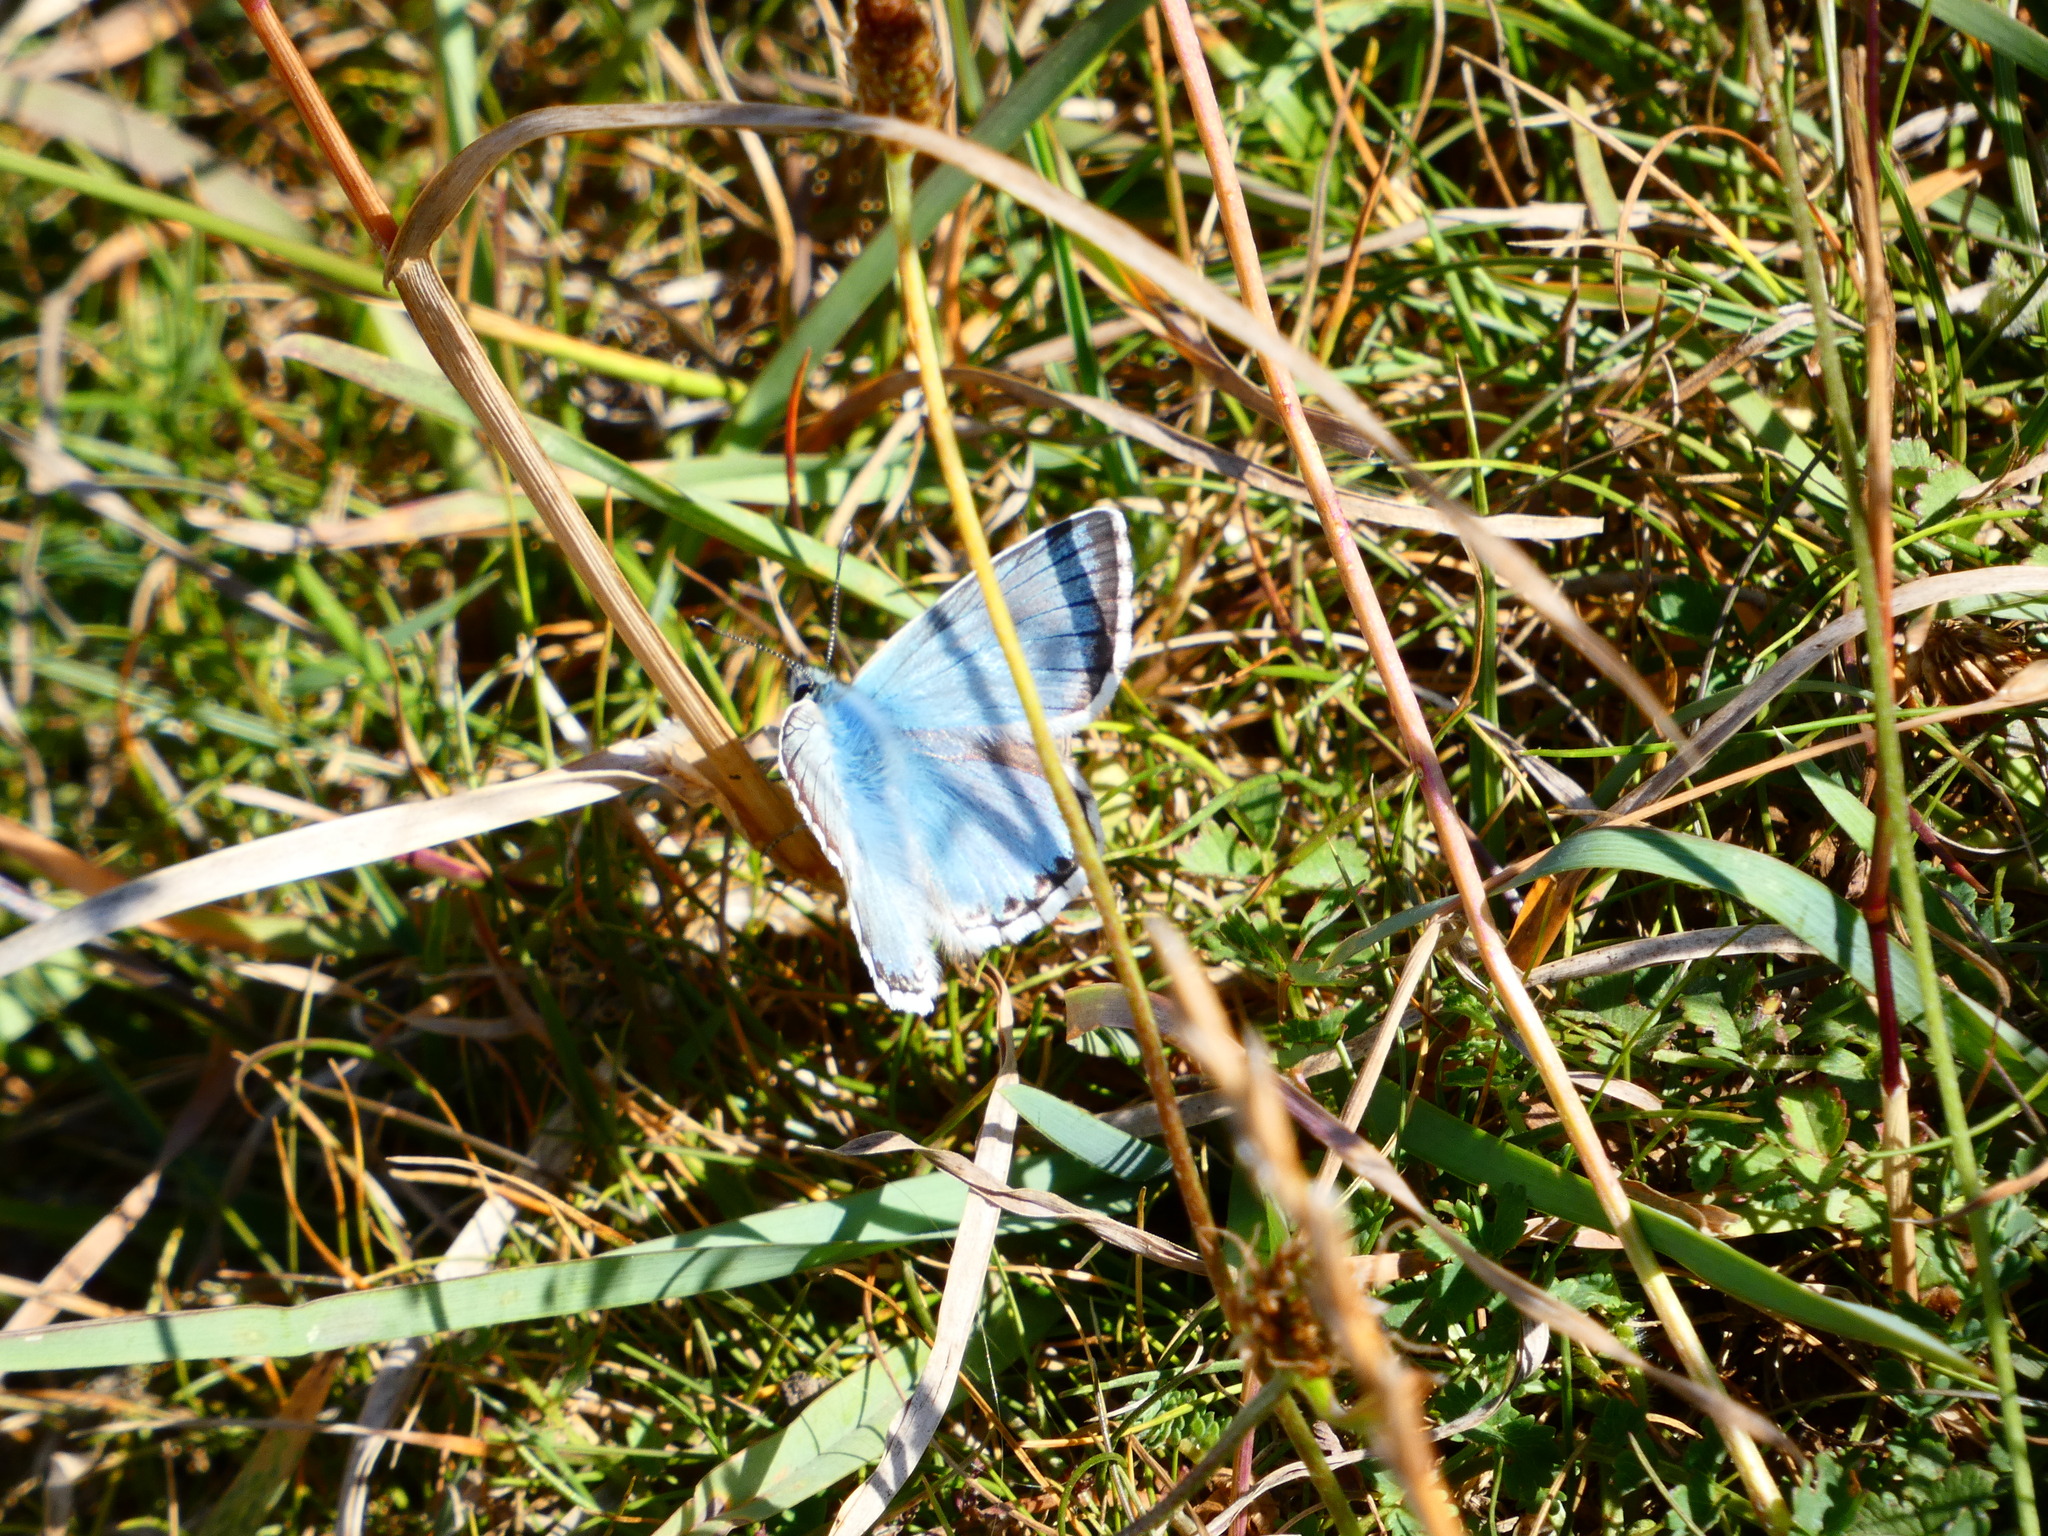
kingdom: Animalia
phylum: Arthropoda
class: Insecta
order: Lepidoptera
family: Lycaenidae
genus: Lysandra
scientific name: Lysandra coridon
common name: Chalkhill blue
